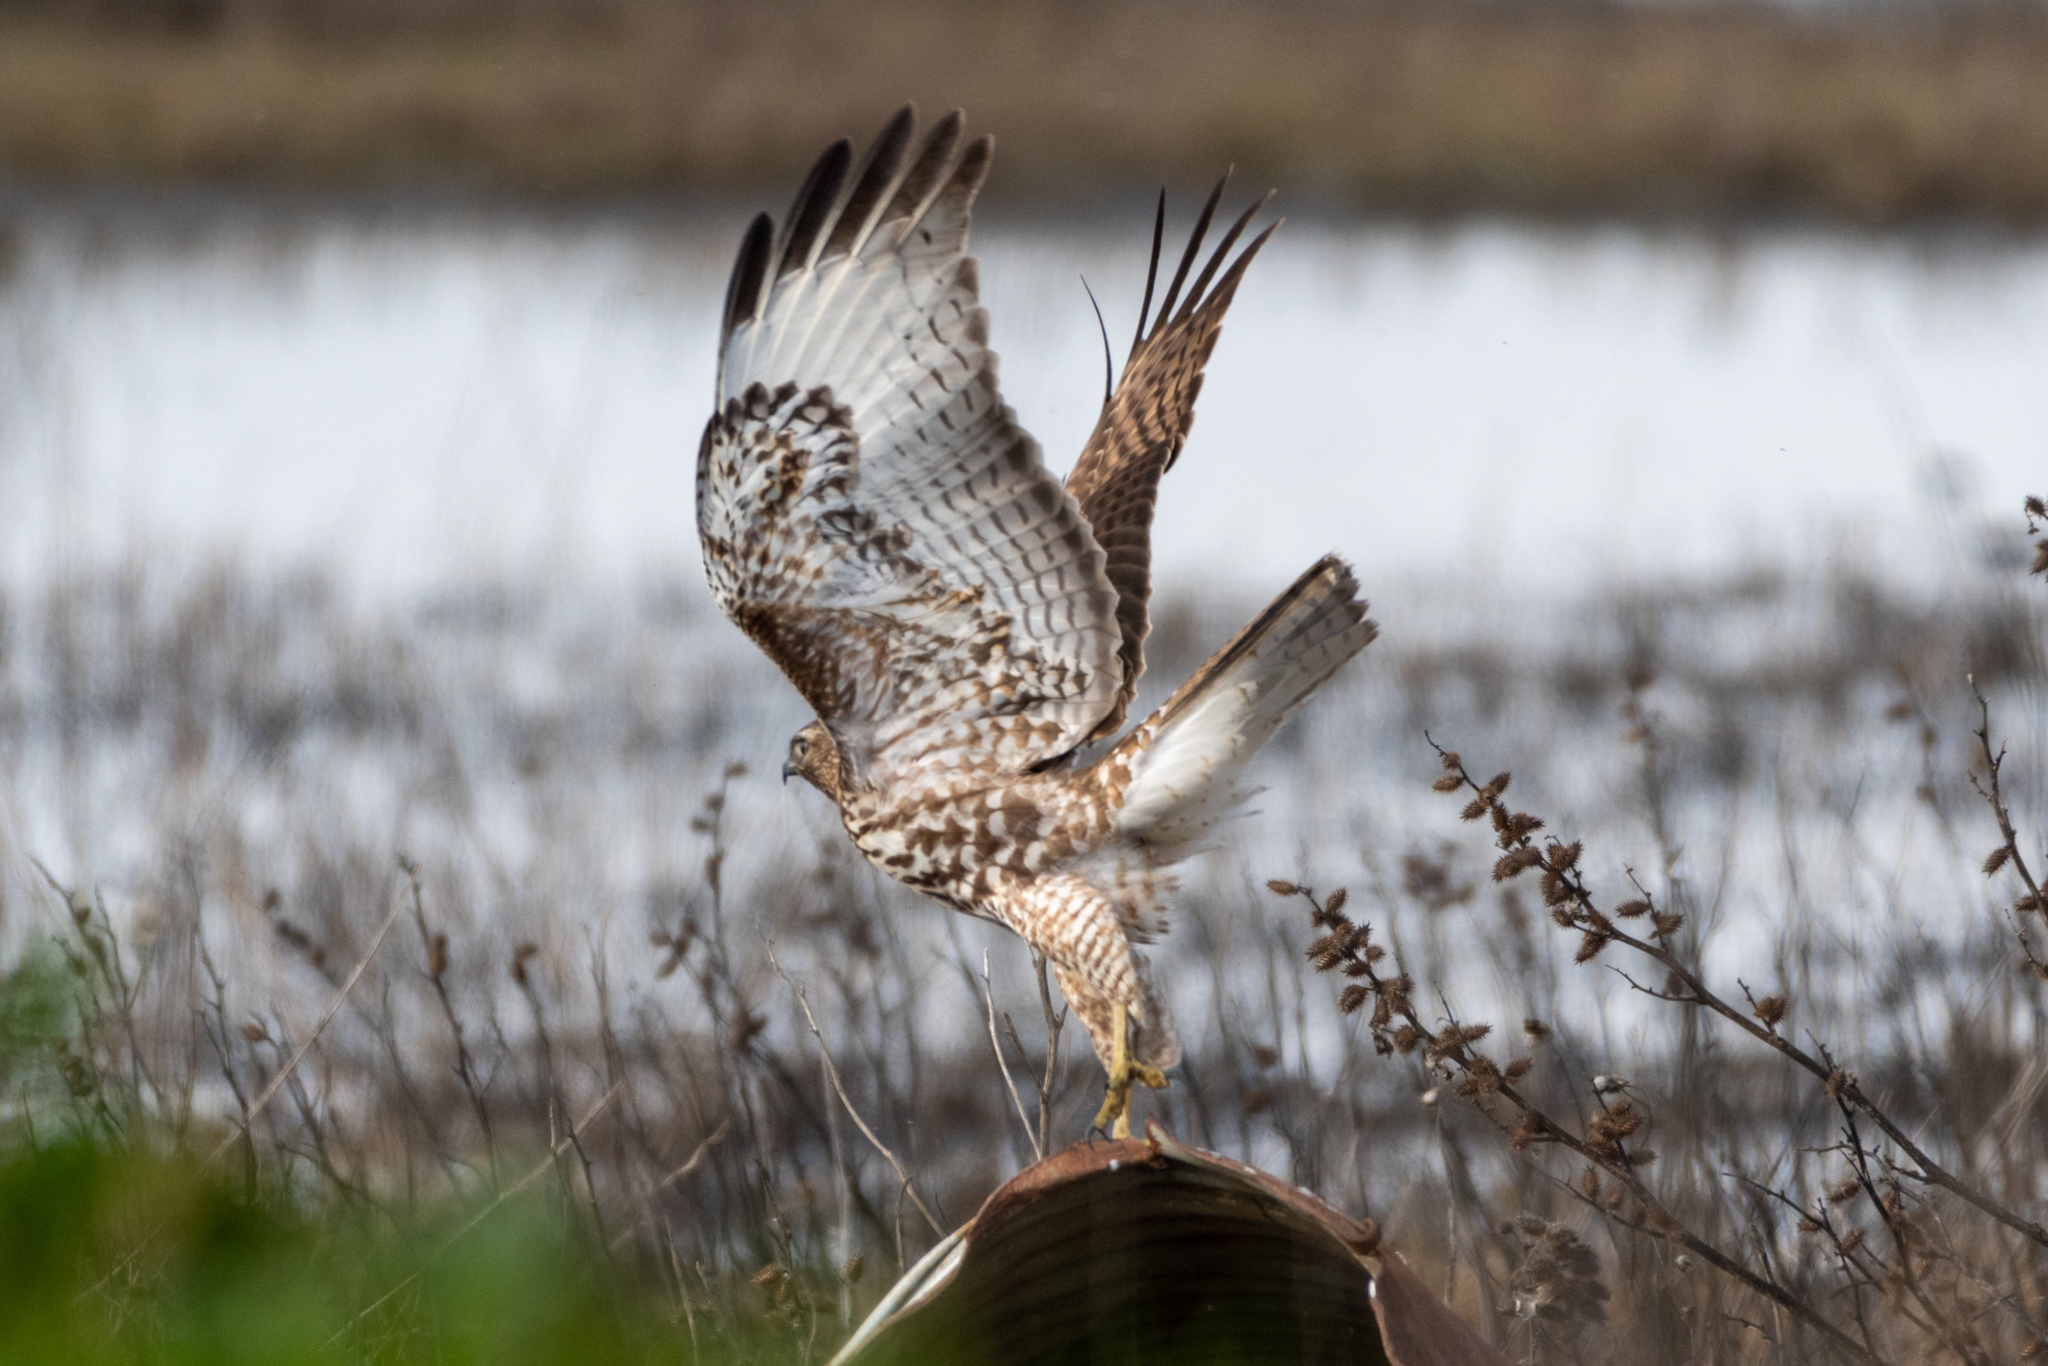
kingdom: Animalia
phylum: Chordata
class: Aves
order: Accipitriformes
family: Accipitridae
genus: Buteo
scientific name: Buteo jamaicensis
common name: Red-tailed hawk
